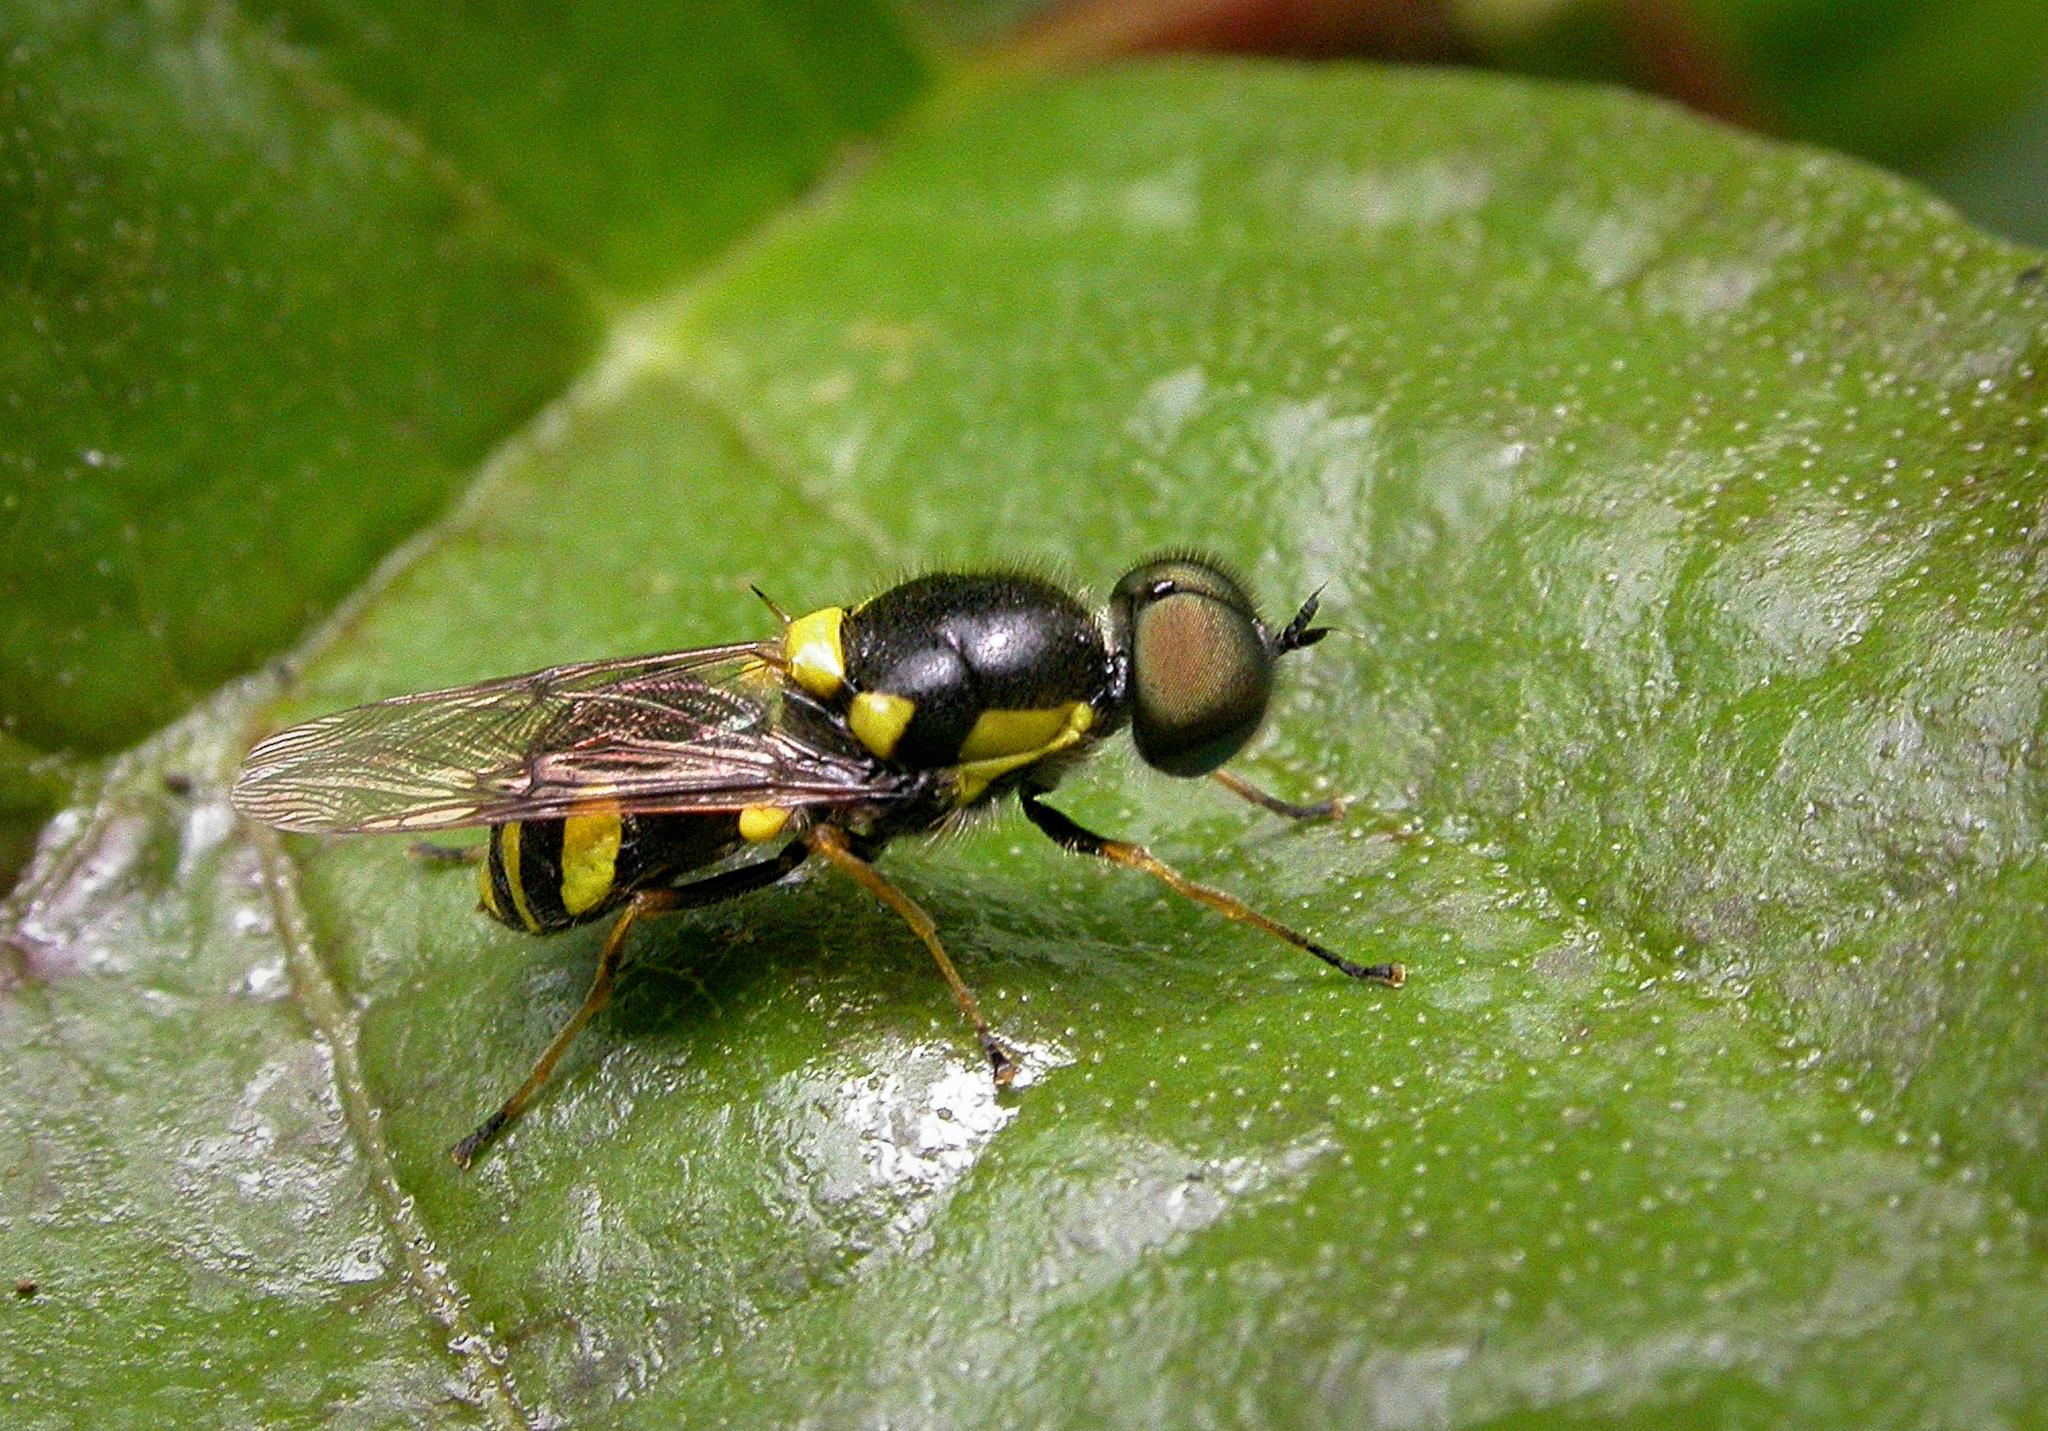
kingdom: Animalia
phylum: Arthropoda
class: Insecta
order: Diptera
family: Stratiomyidae
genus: Oxycera
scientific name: Oxycera rara
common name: Four-barred major
